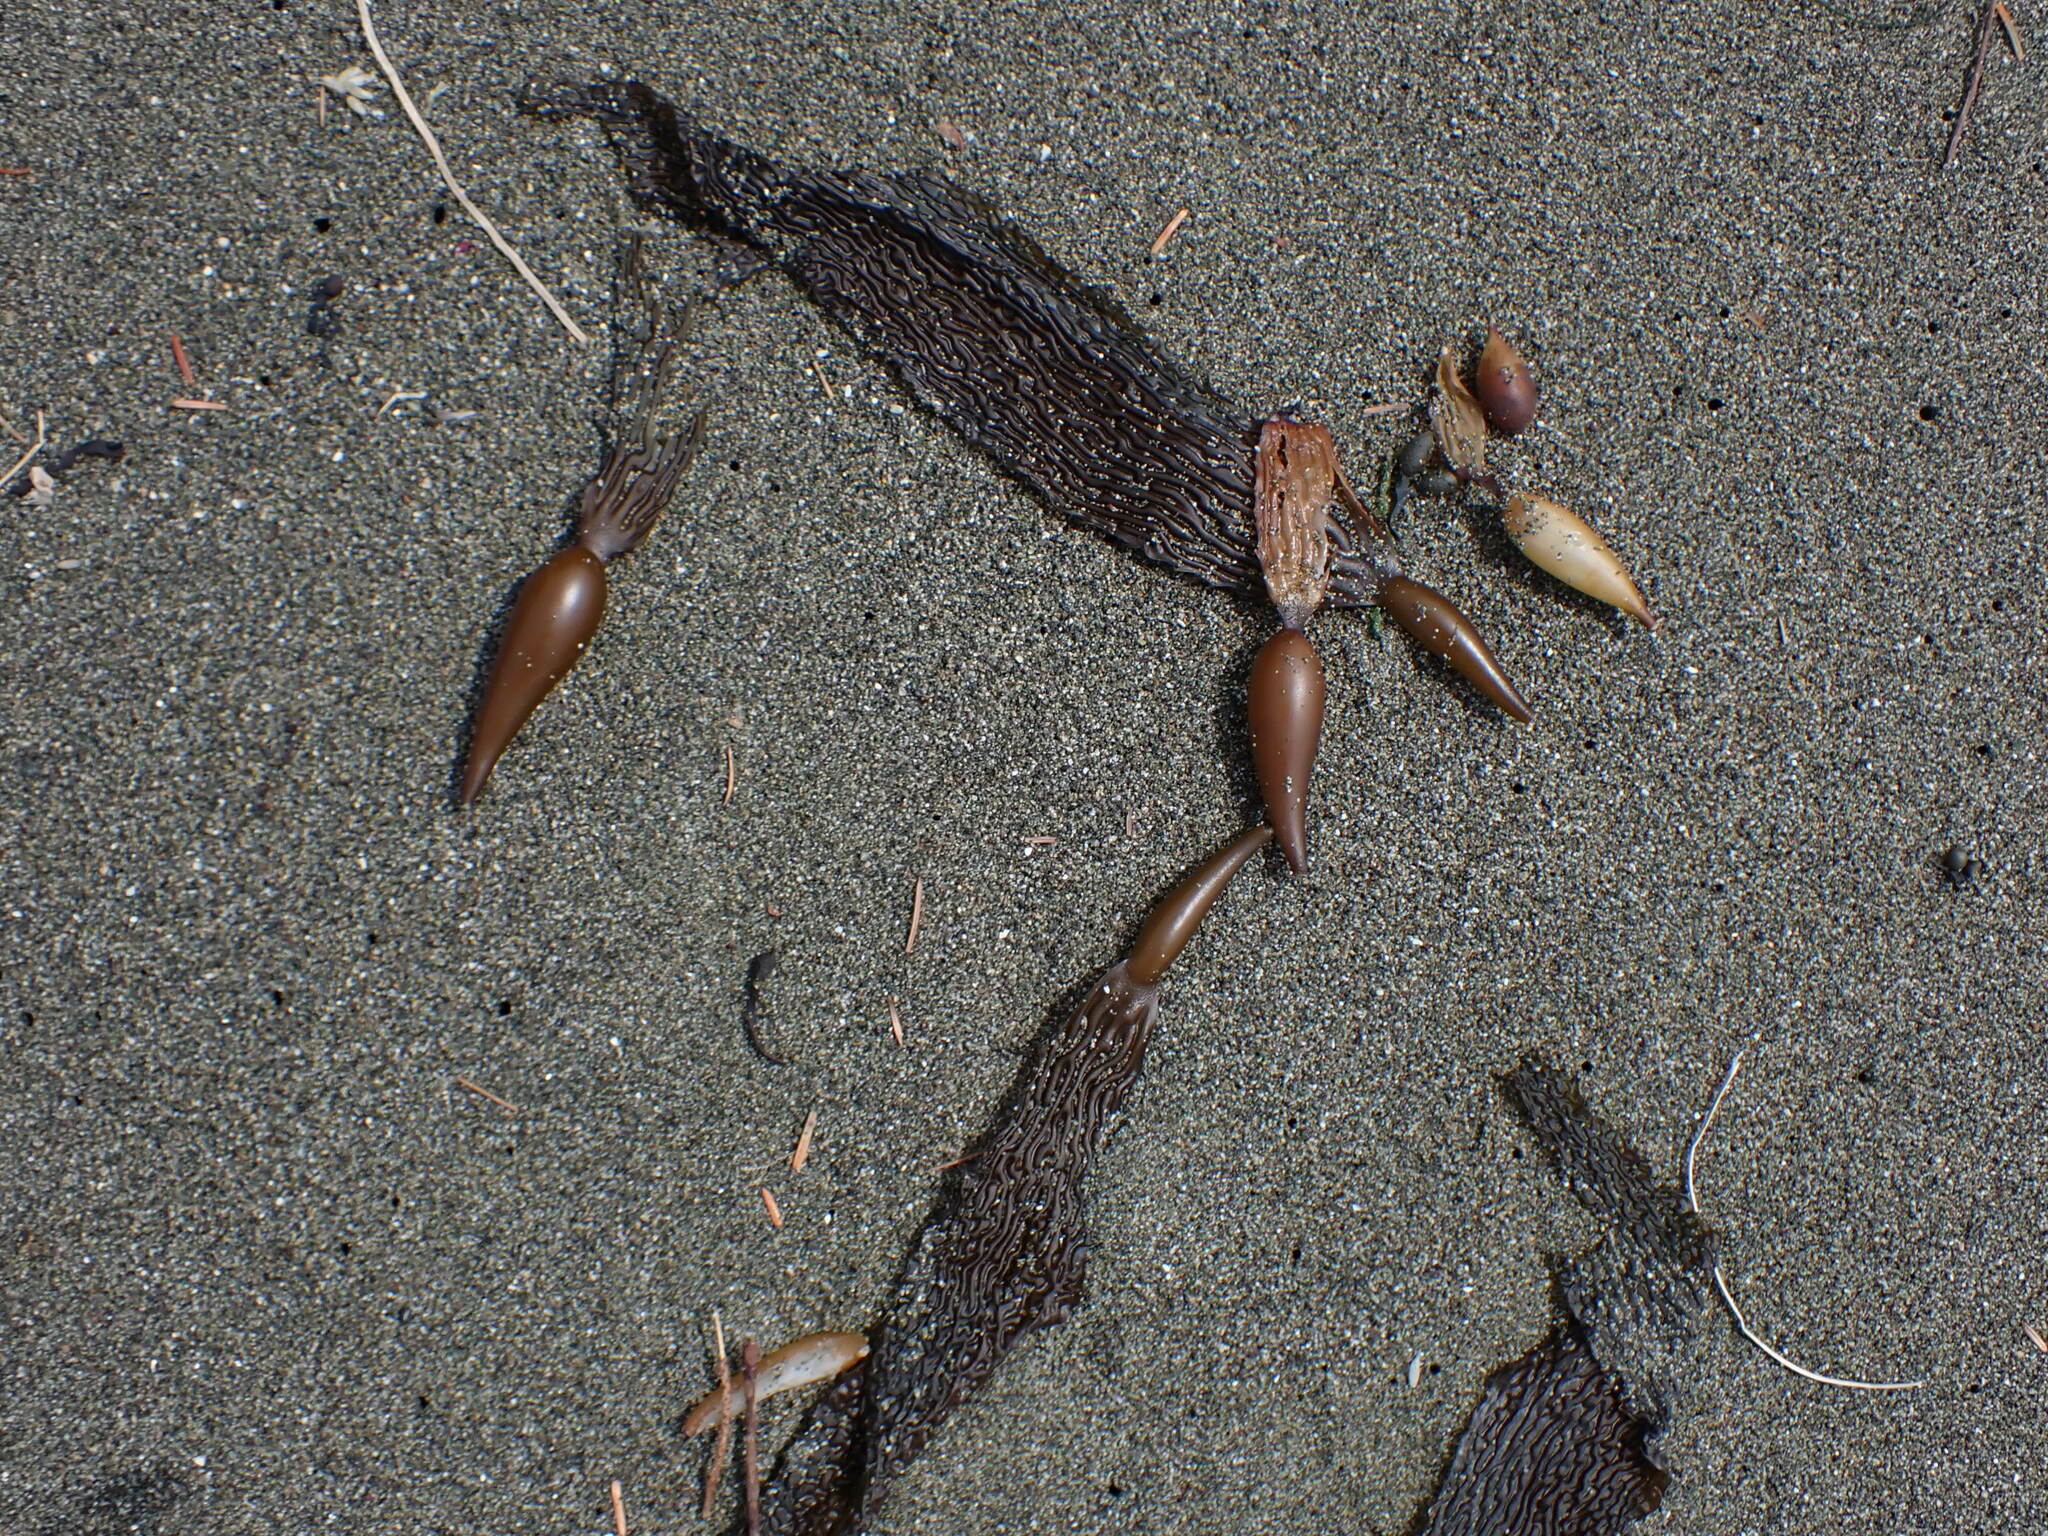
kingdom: Chromista
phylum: Ochrophyta
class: Phaeophyceae
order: Laminariales
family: Laminariaceae
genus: Macrocystis
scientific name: Macrocystis pyrifera
